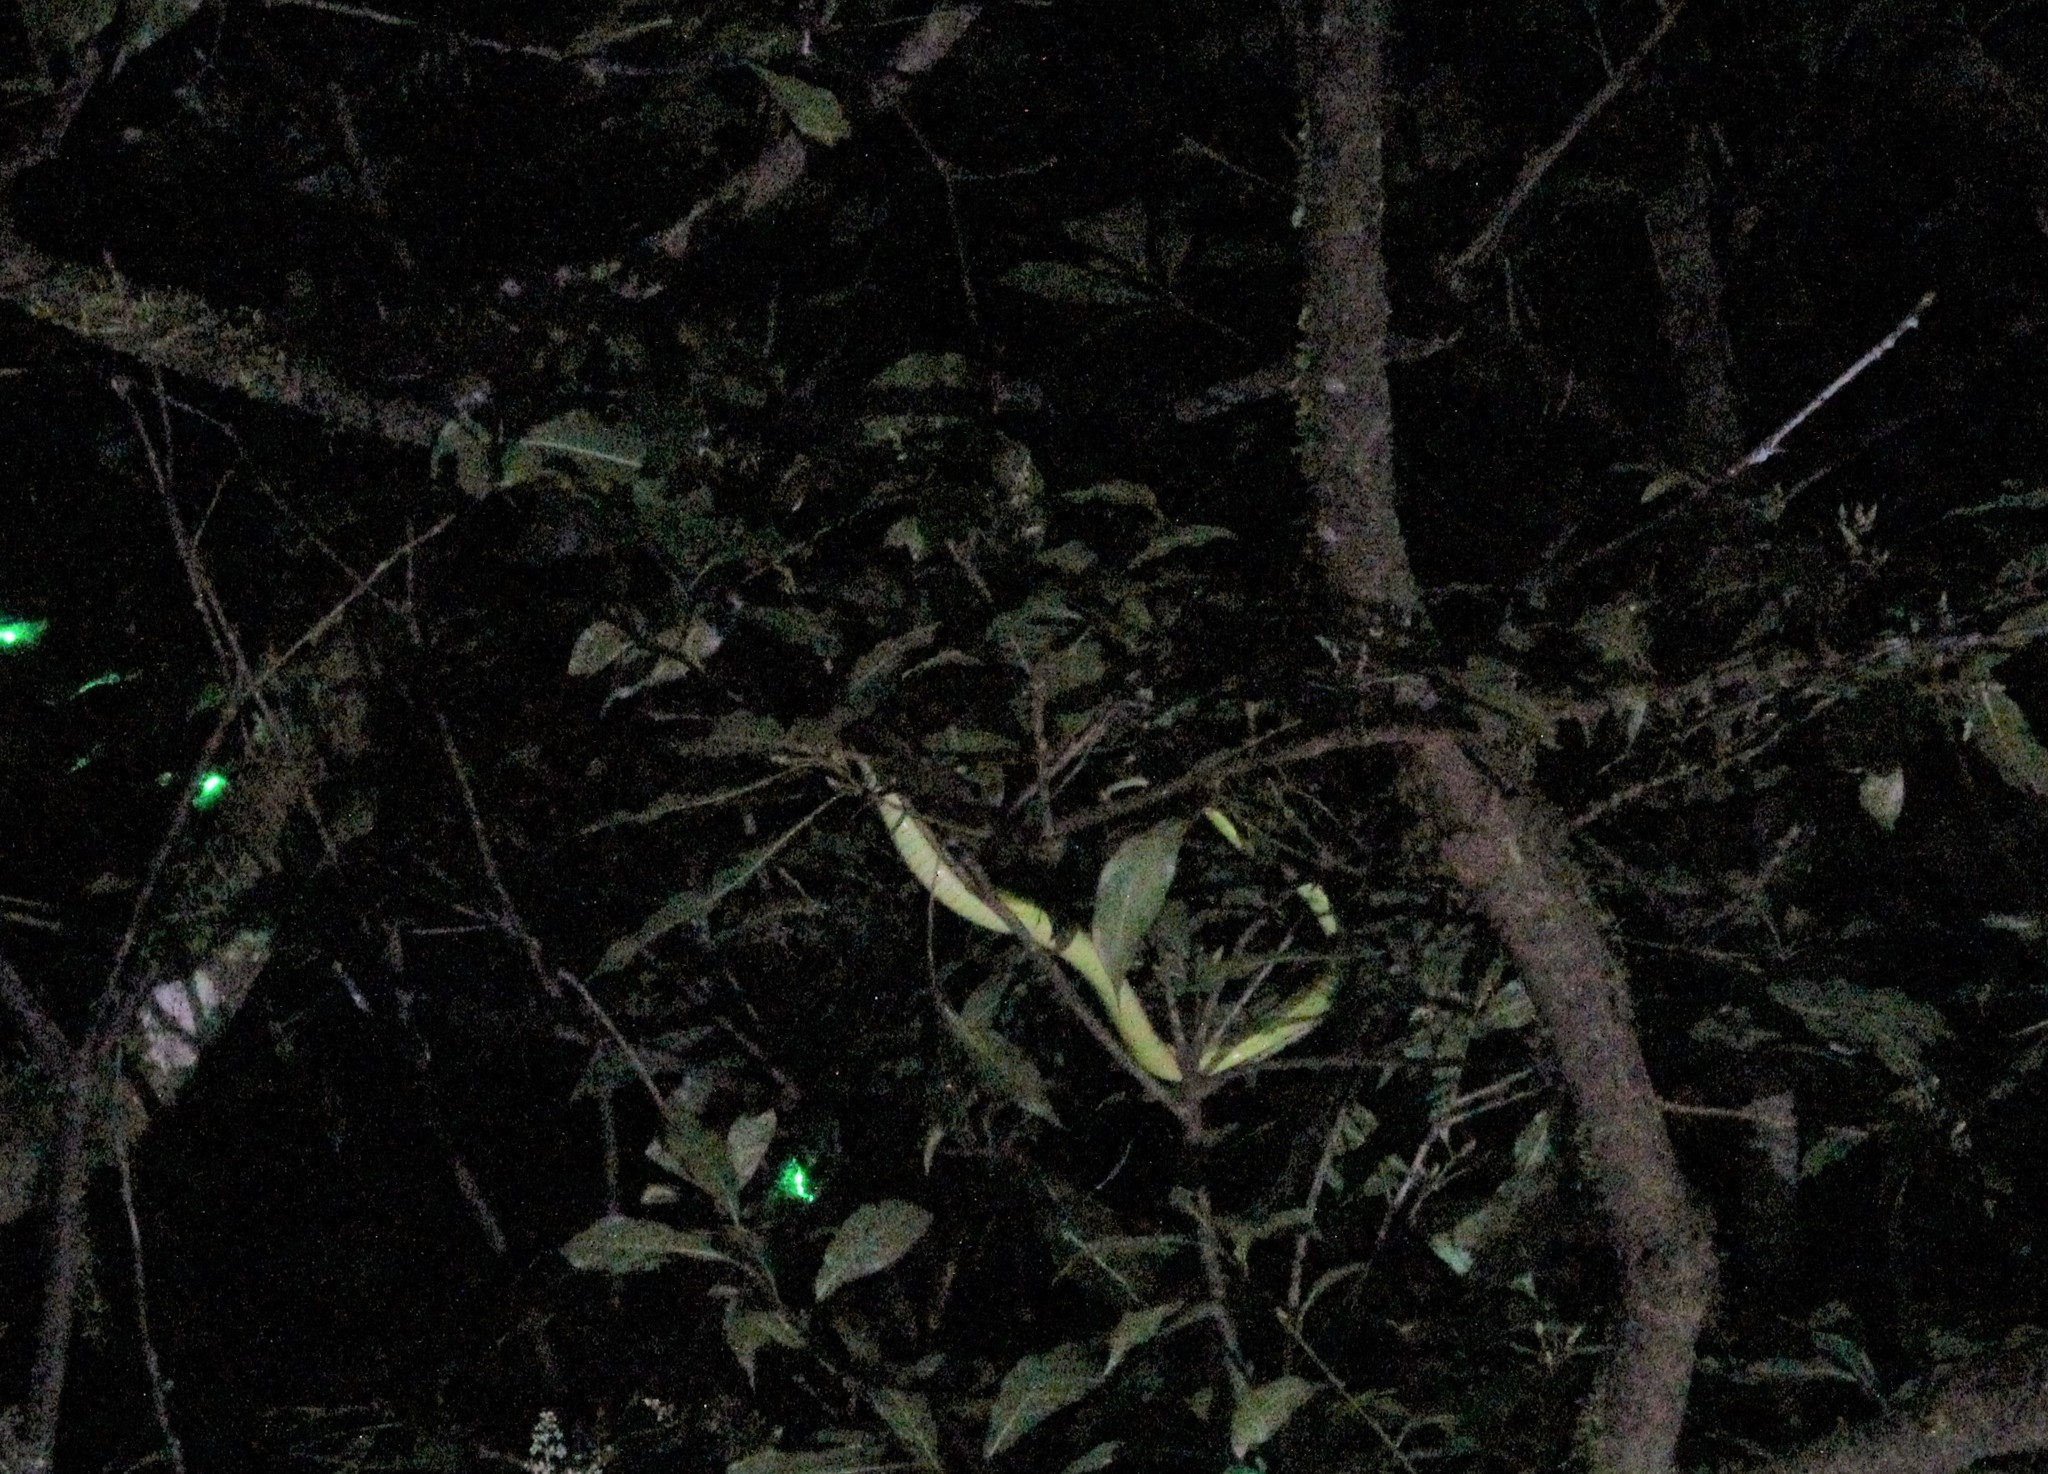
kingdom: Animalia
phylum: Chordata
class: Squamata
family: Viperidae
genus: Bothriechis
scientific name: Bothriechis lateralis
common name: Coffee palm viper
